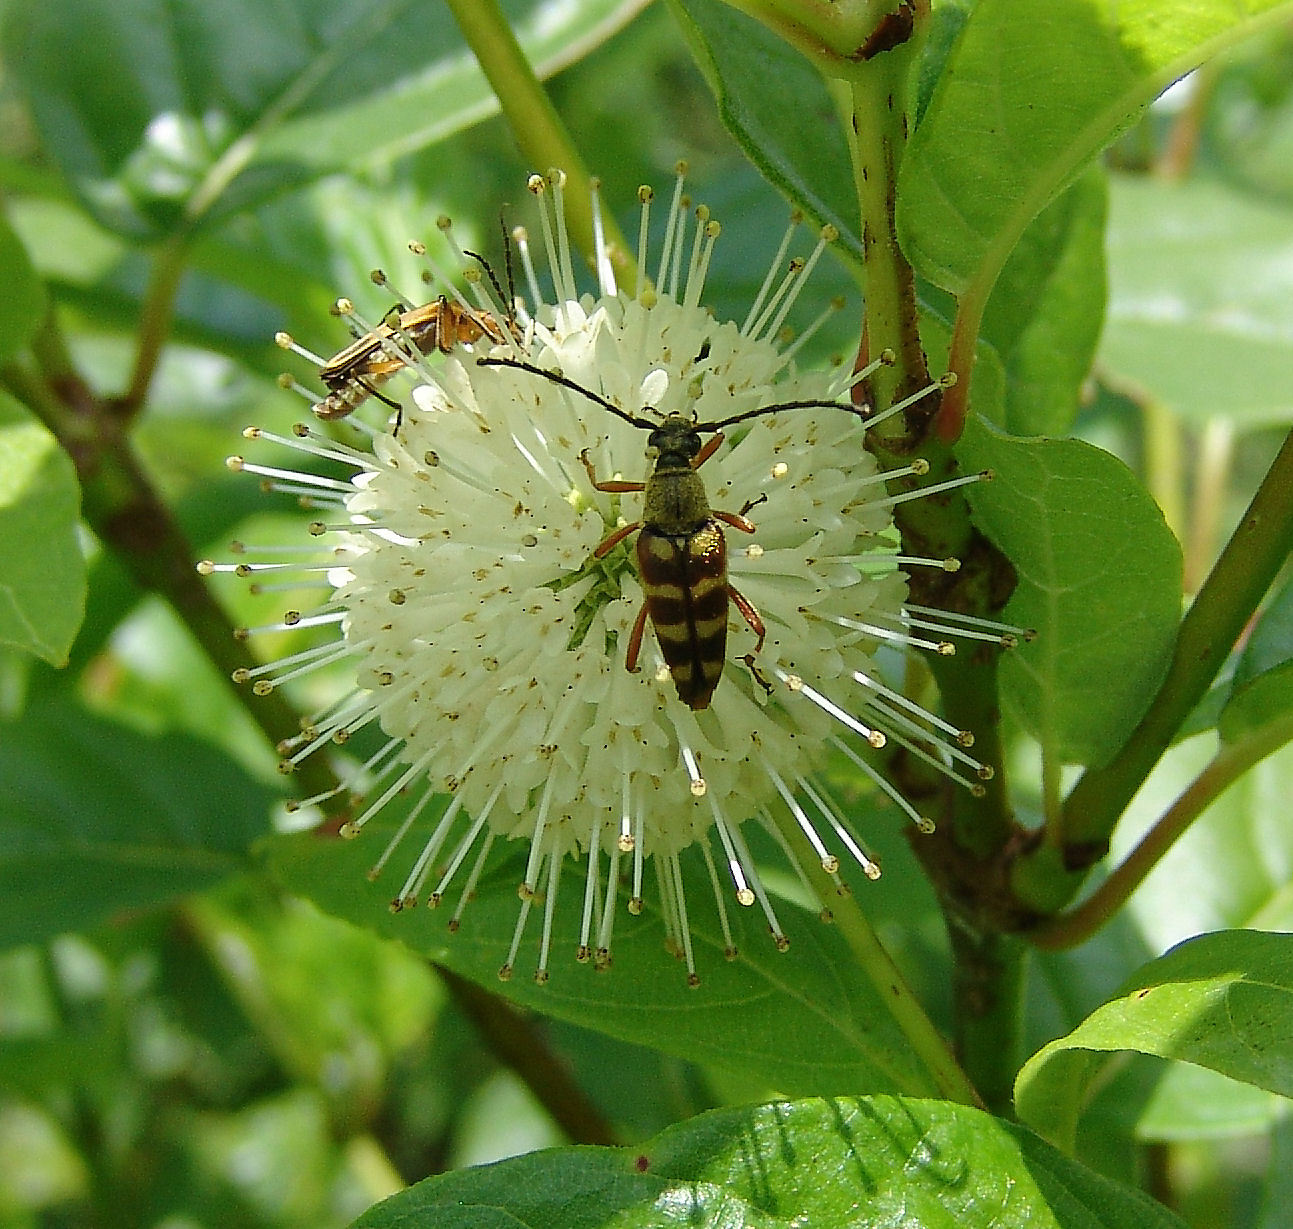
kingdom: Plantae
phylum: Tracheophyta
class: Magnoliopsida
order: Gentianales
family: Rubiaceae
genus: Cephalanthus
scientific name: Cephalanthus occidentalis
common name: Button-willow
